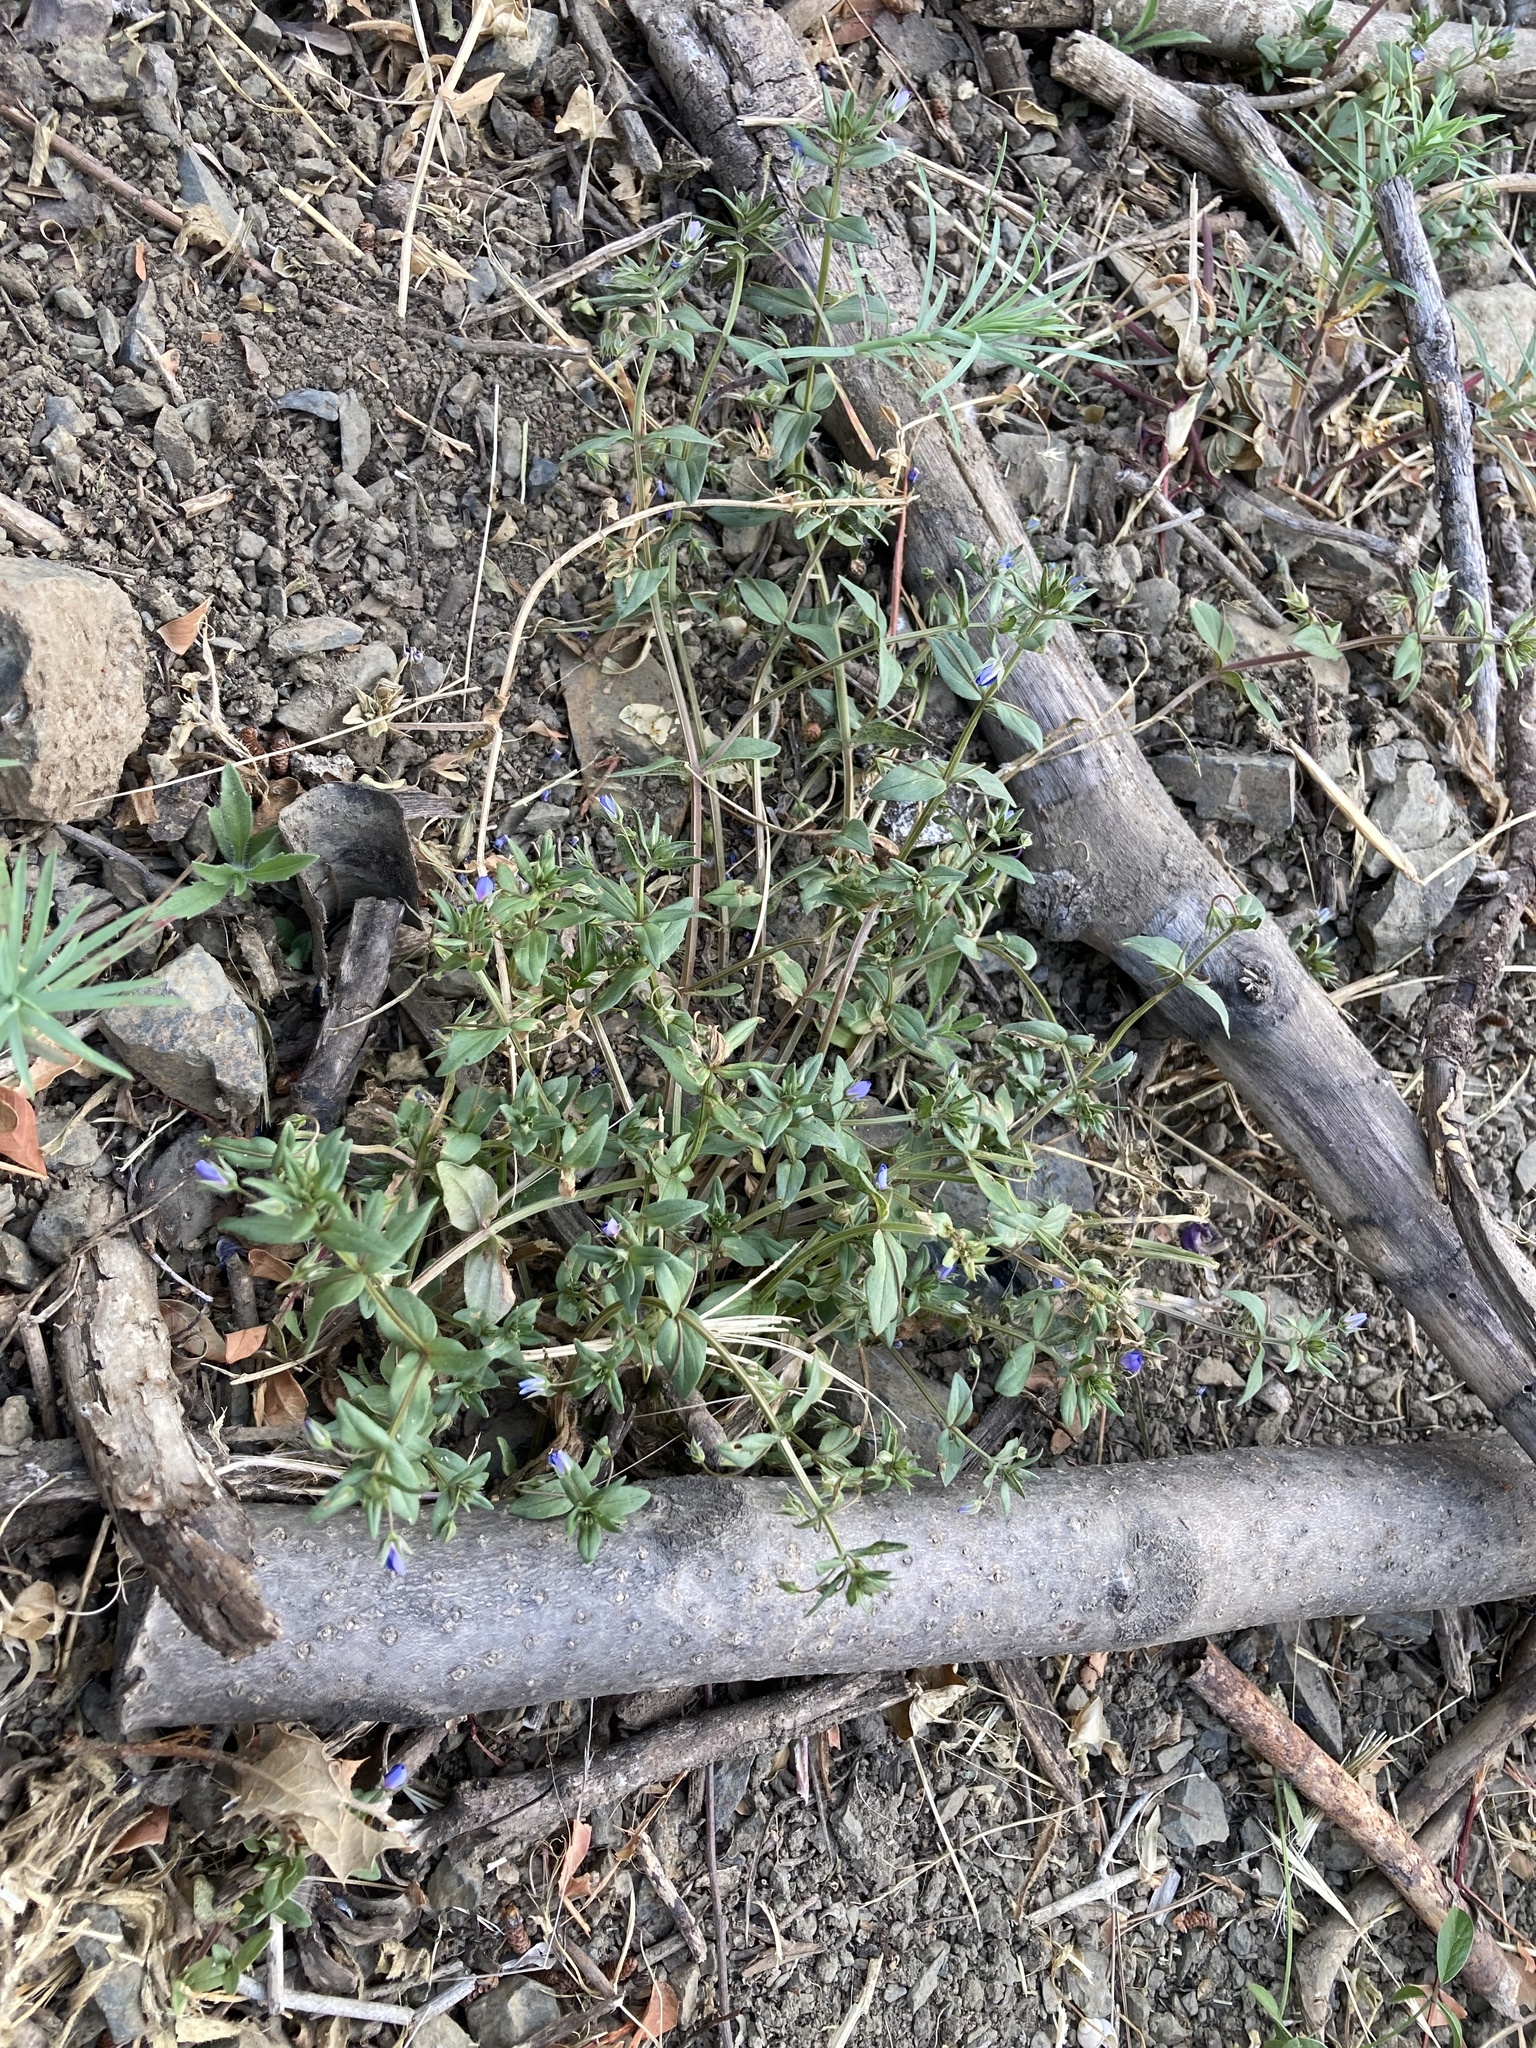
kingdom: Plantae
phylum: Tracheophyta
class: Magnoliopsida
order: Ericales
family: Primulaceae
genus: Lysimachia
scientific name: Lysimachia foemina
